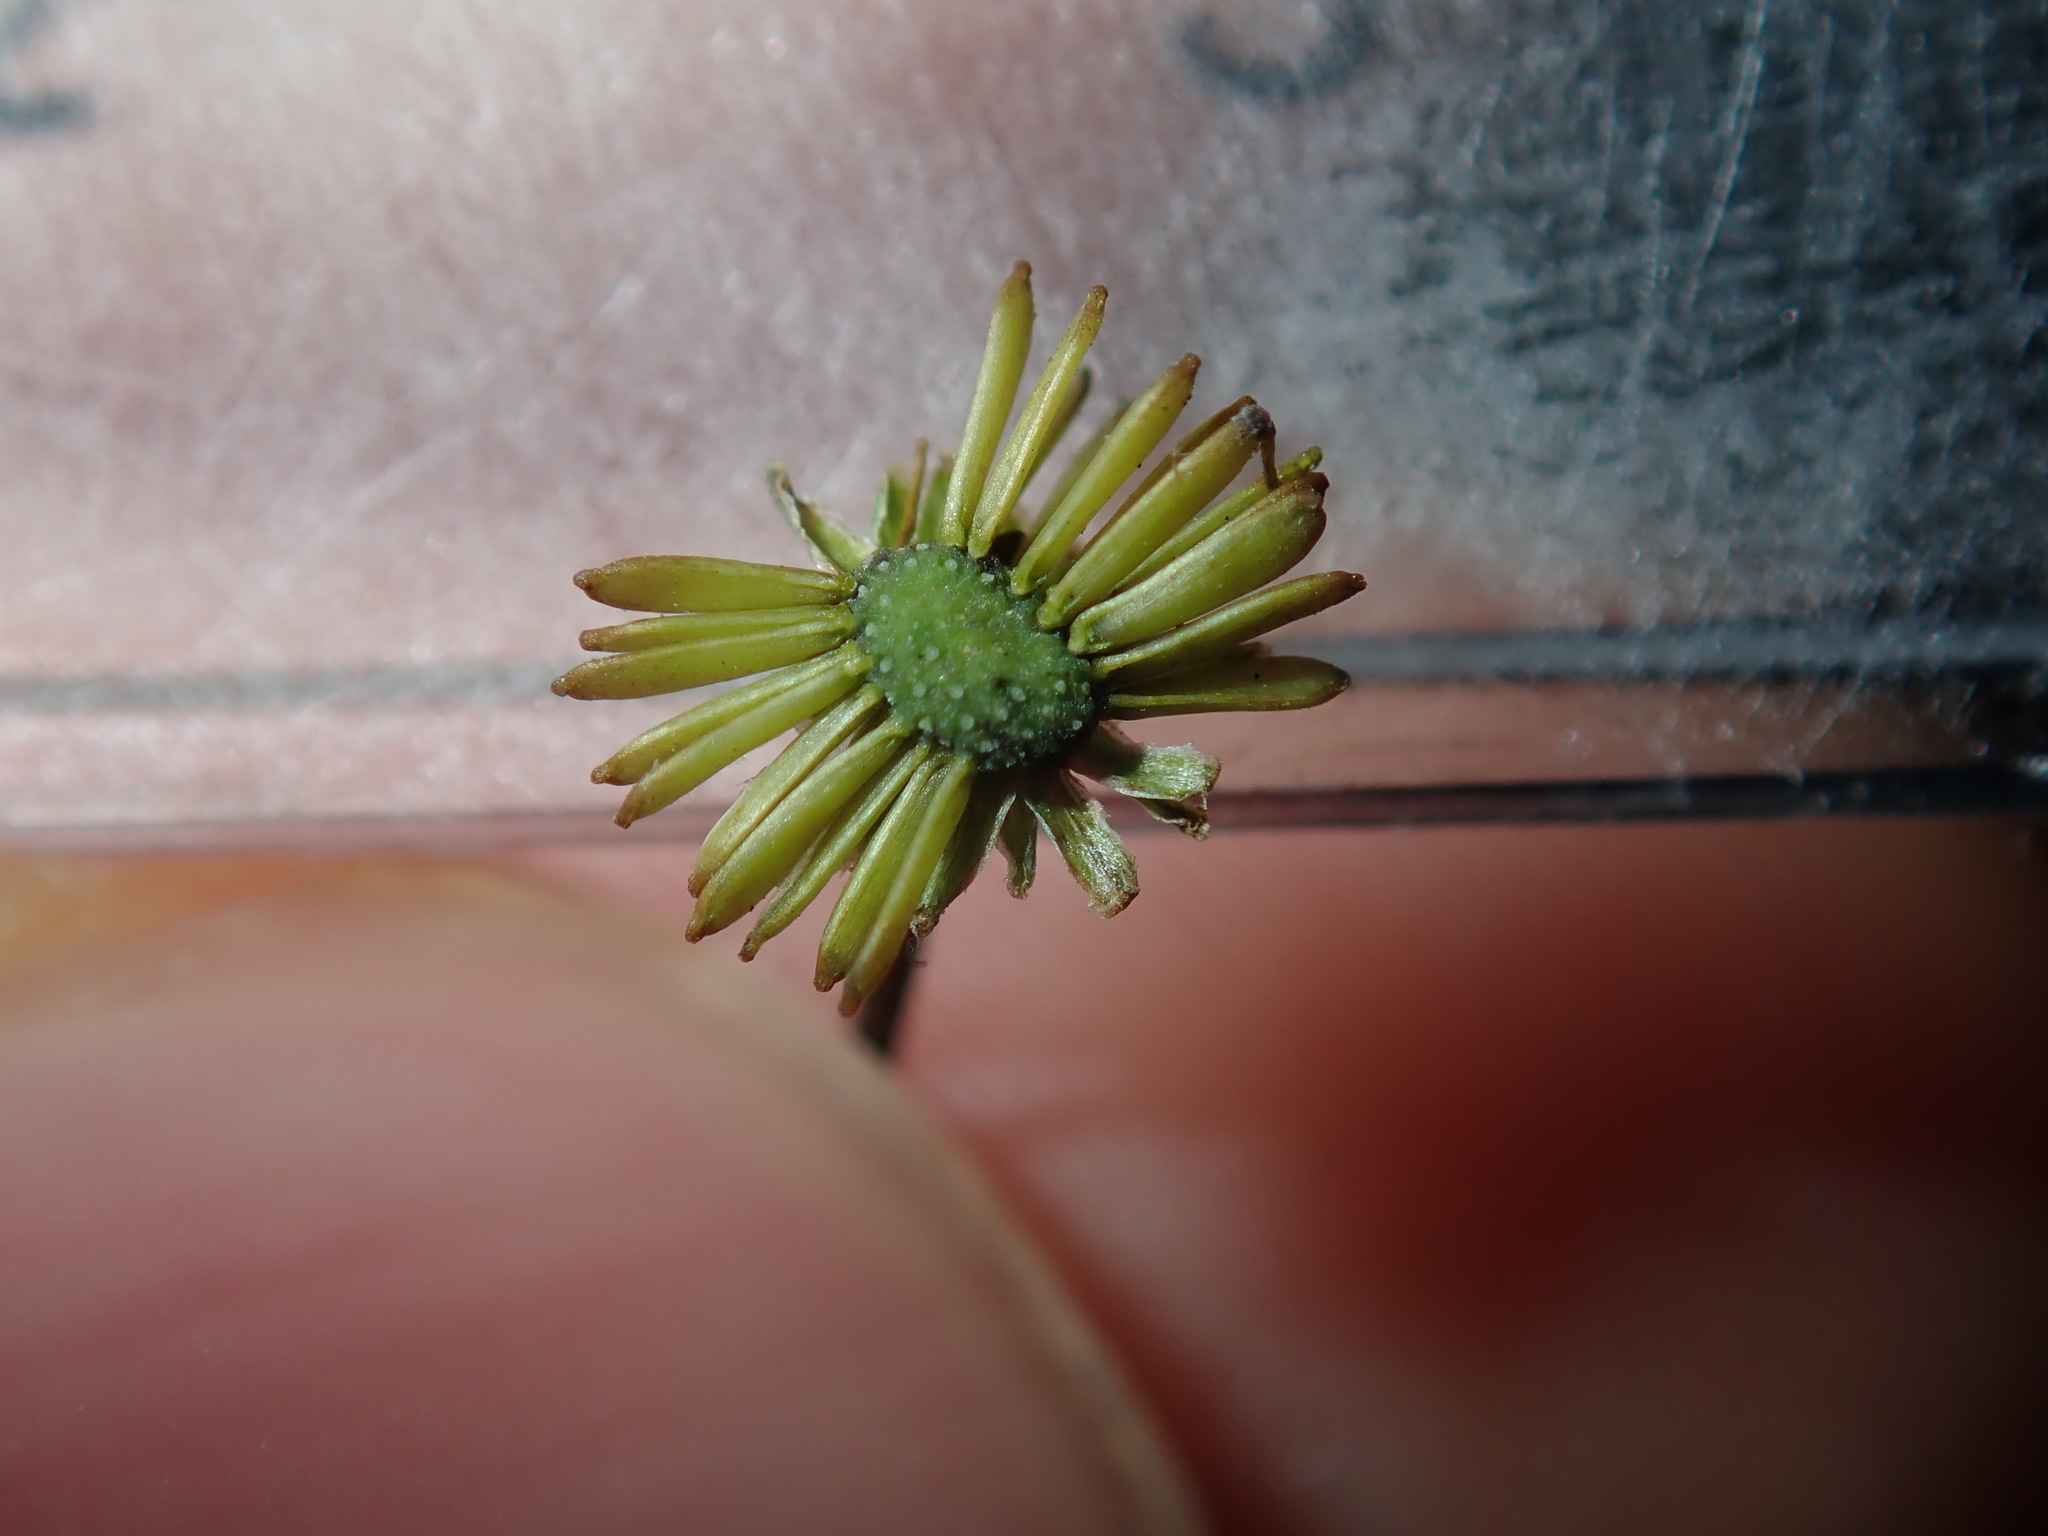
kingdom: Plantae
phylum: Tracheophyta
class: Magnoliopsida
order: Asterales
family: Asteraceae
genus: Solenogyne
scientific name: Solenogyne bellioides
